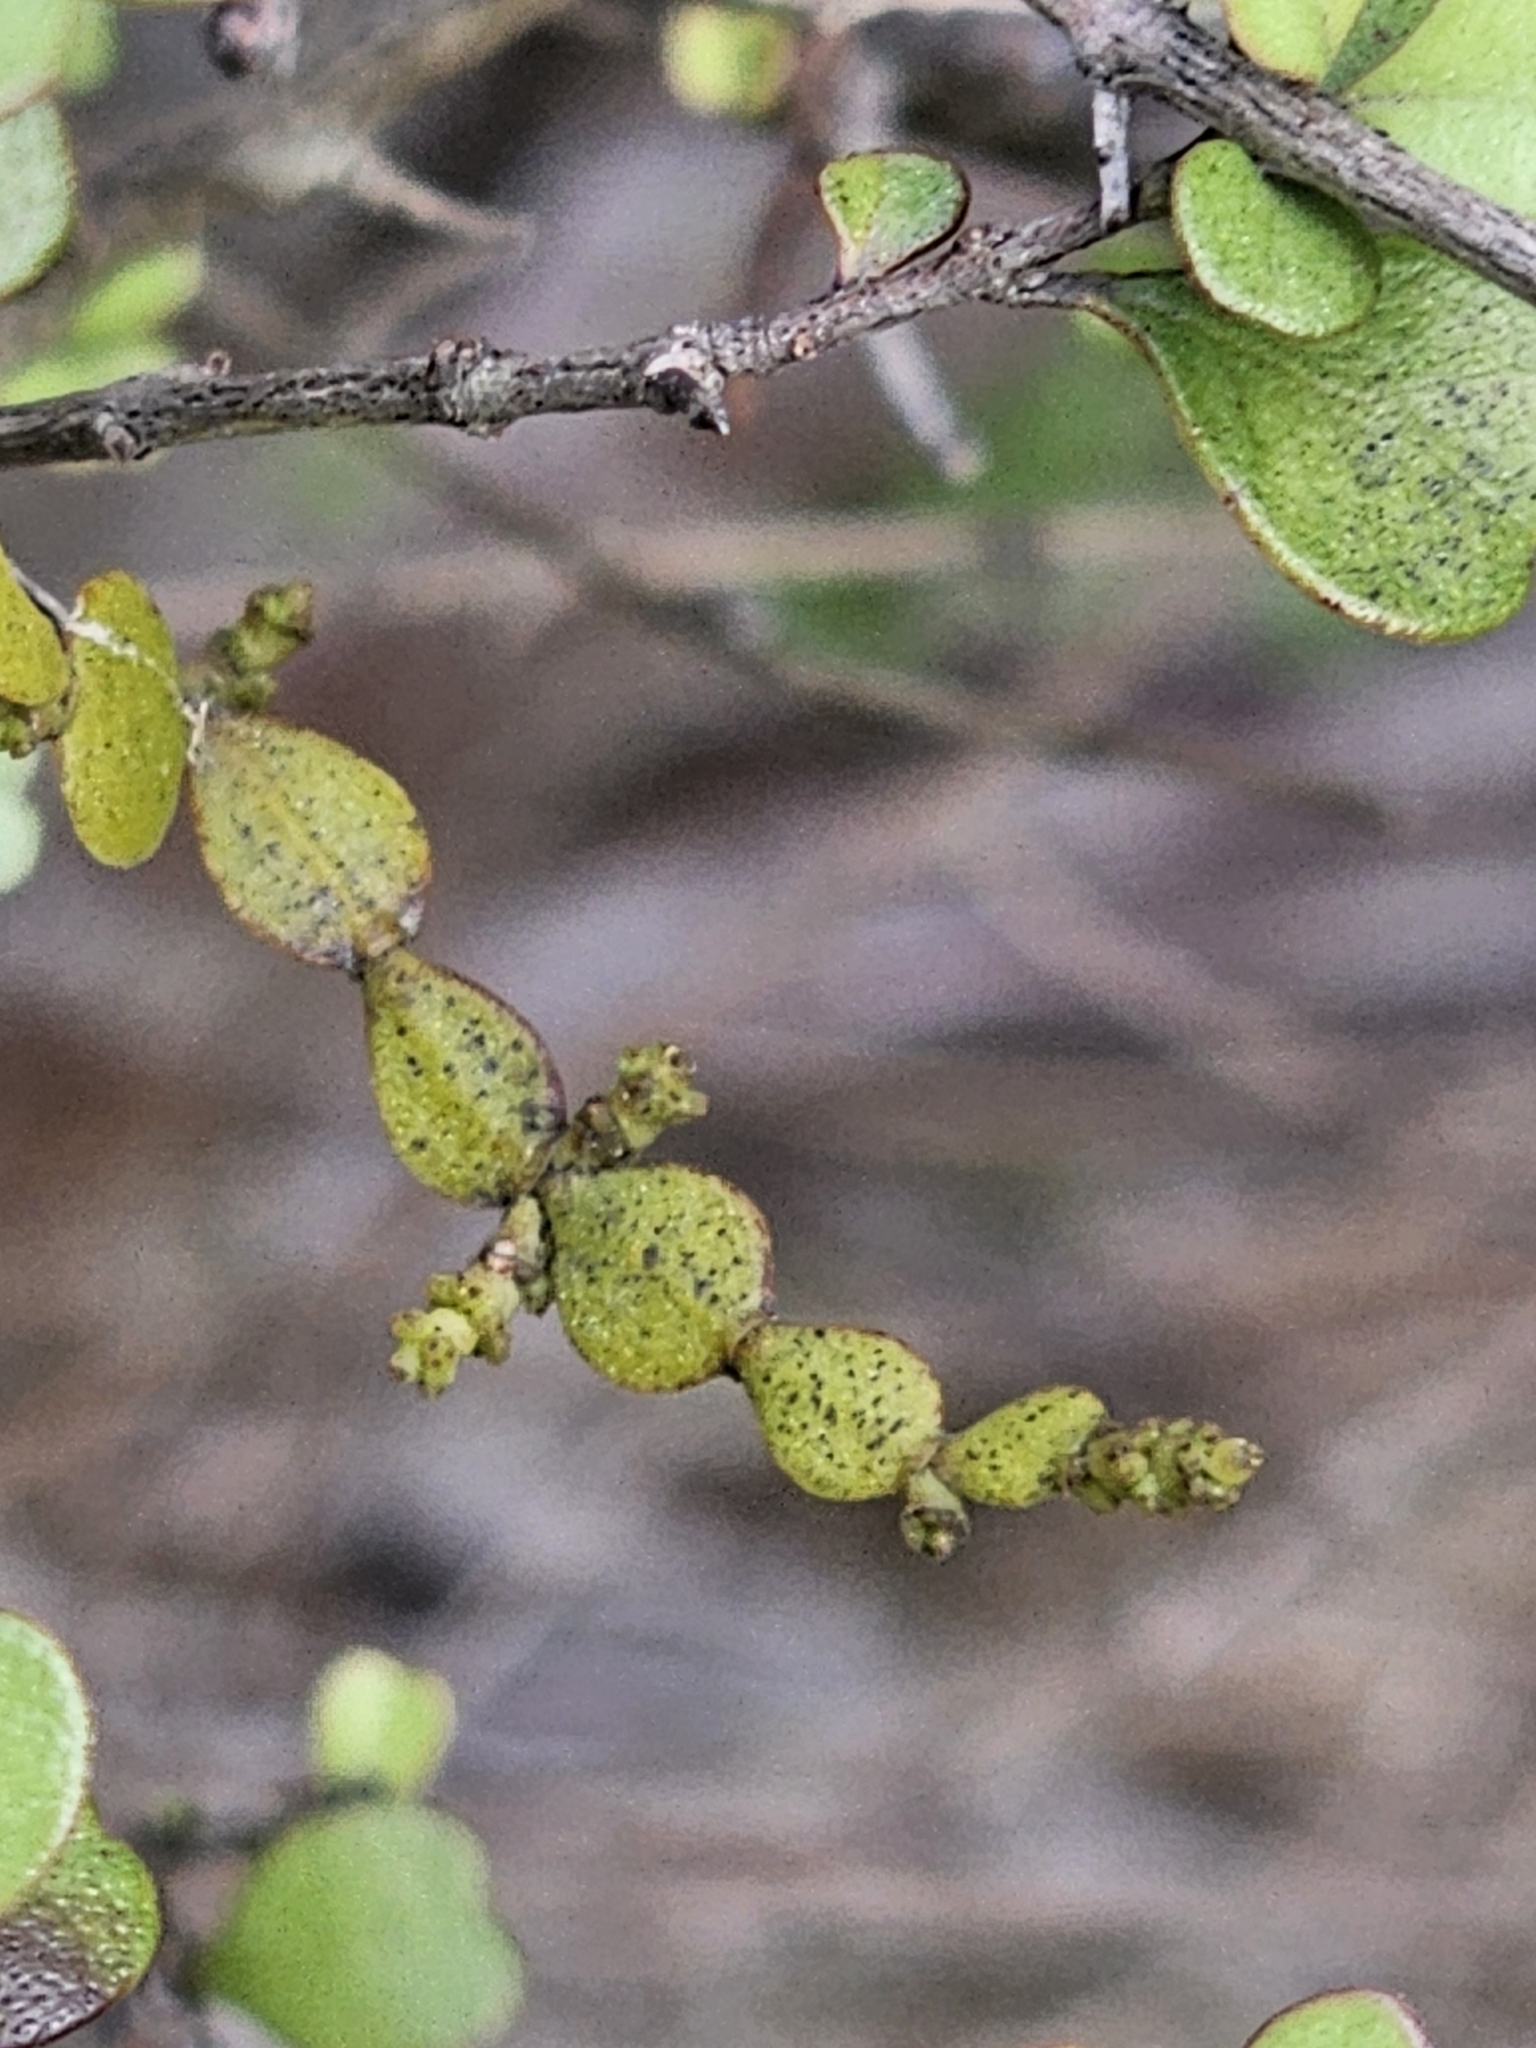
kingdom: Plantae
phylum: Tracheophyta
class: Magnoliopsida
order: Santalales
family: Viscaceae
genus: Korthalsella
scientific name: Korthalsella lindsayi
